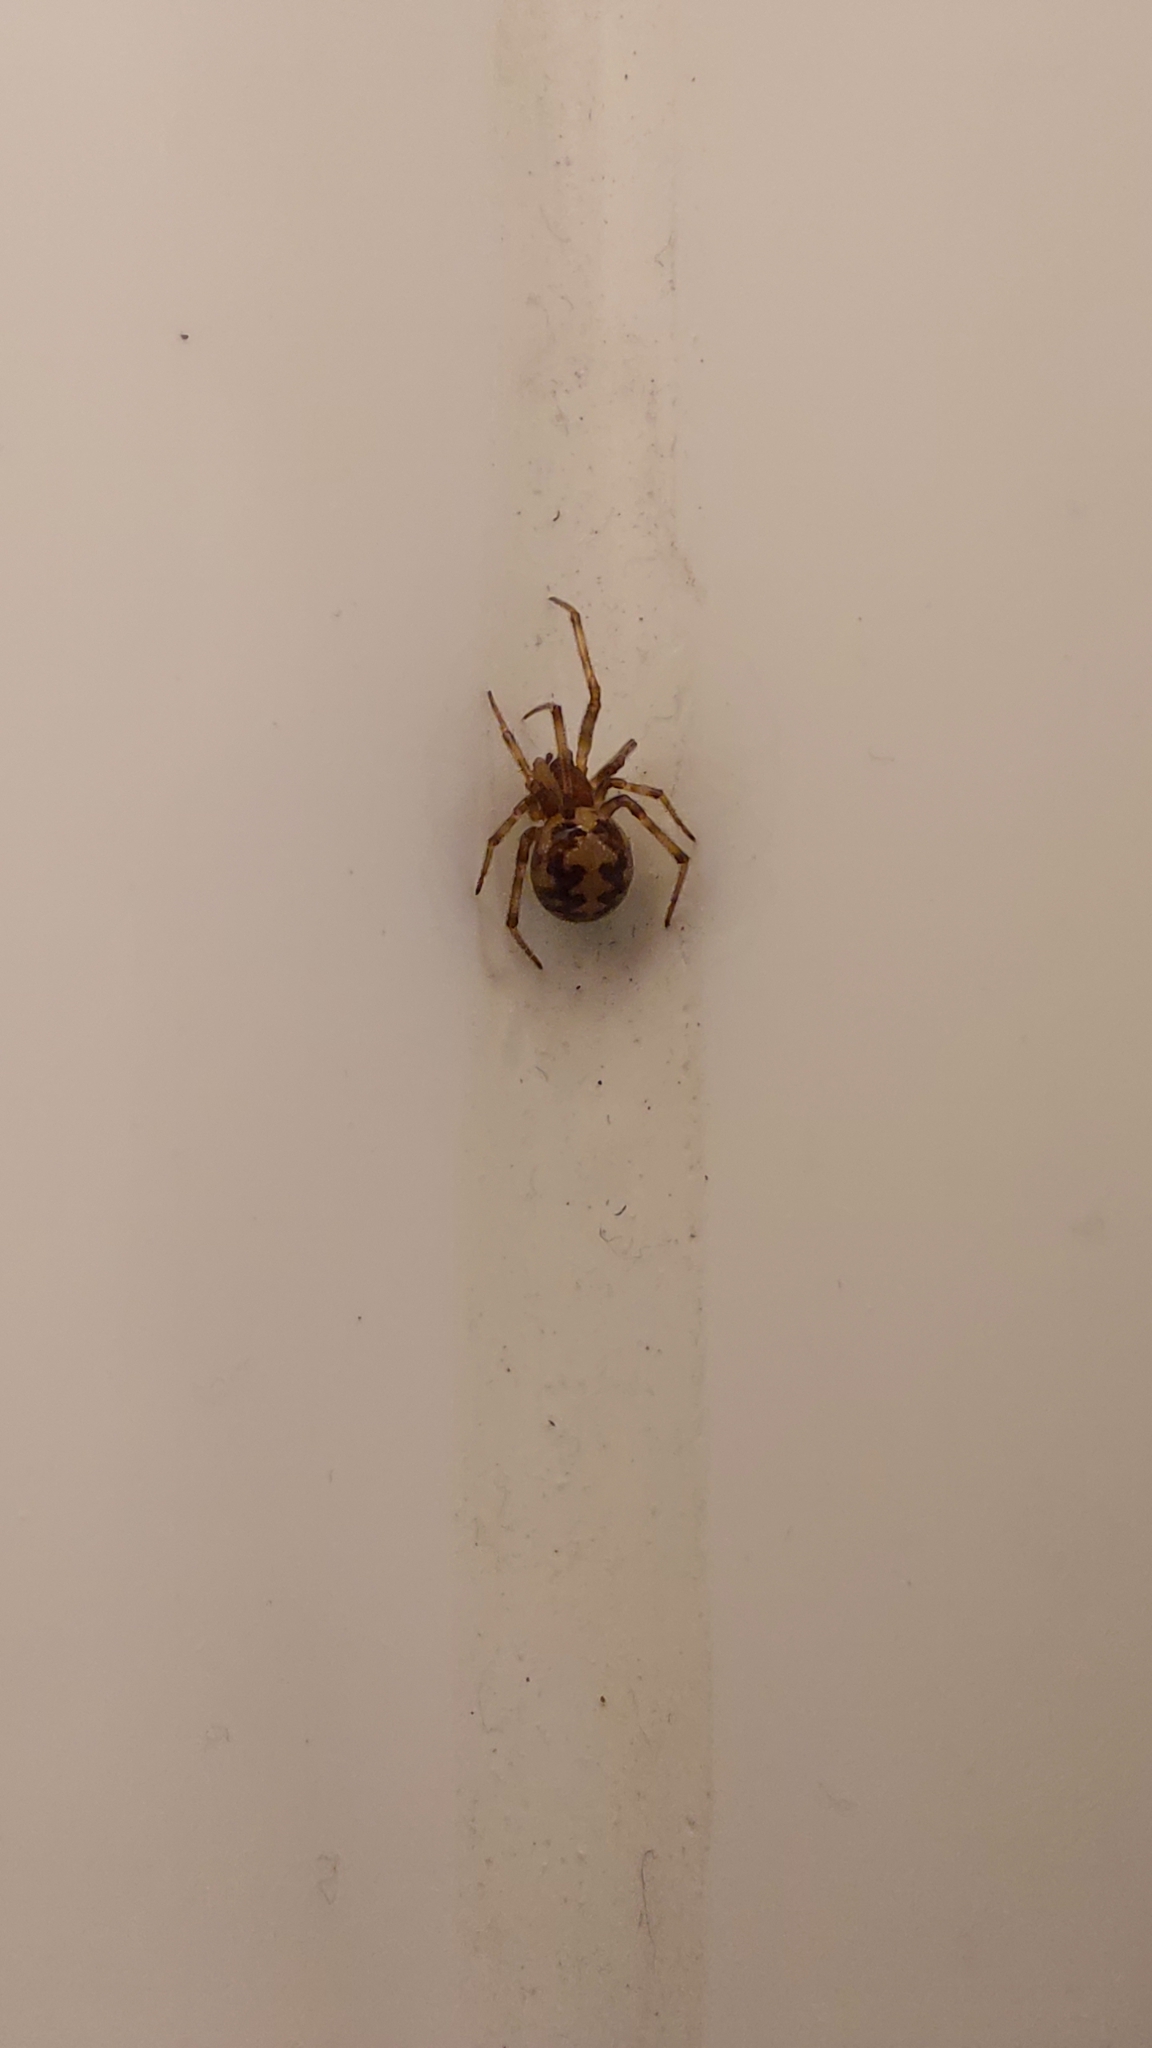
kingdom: Animalia
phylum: Arthropoda
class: Arachnida
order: Araneae
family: Theridiidae
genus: Steatoda
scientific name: Steatoda triangulosa
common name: Triangulate bud spider
